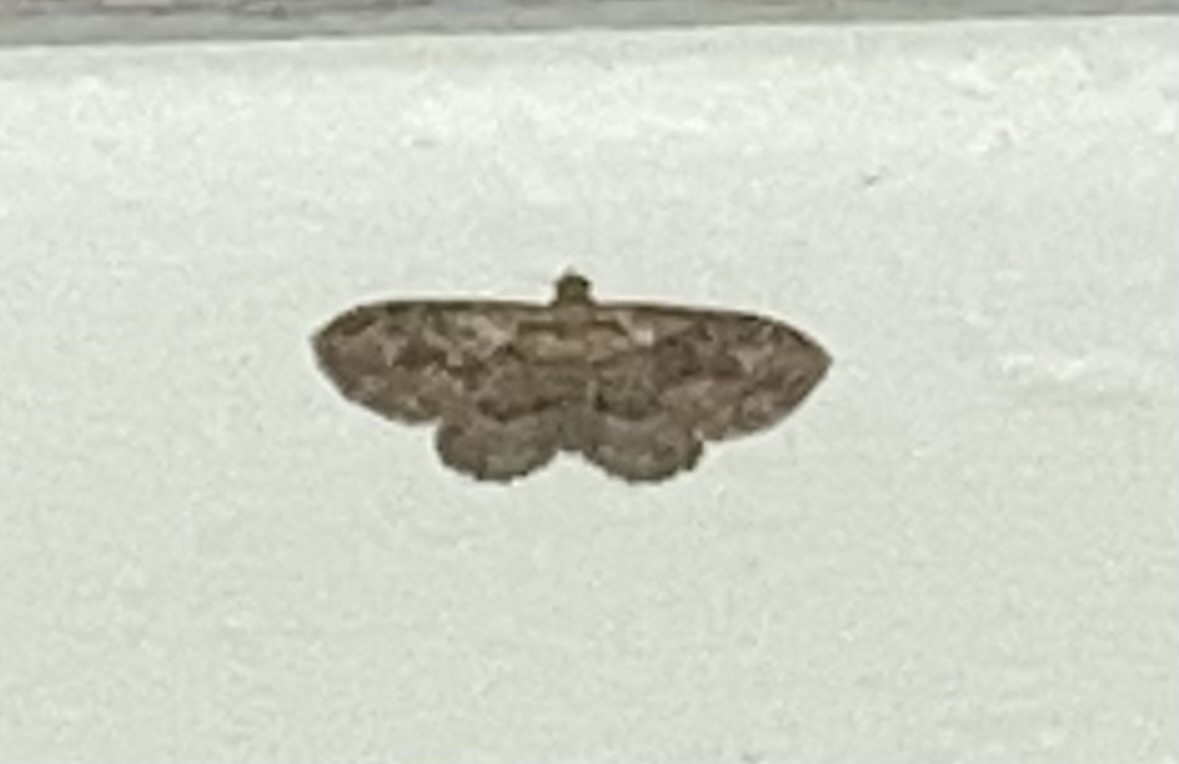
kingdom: Animalia
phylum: Arthropoda
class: Insecta
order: Lepidoptera
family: Geometridae
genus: Disclisioprocta
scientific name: Disclisioprocta stellata
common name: Somber carpet
